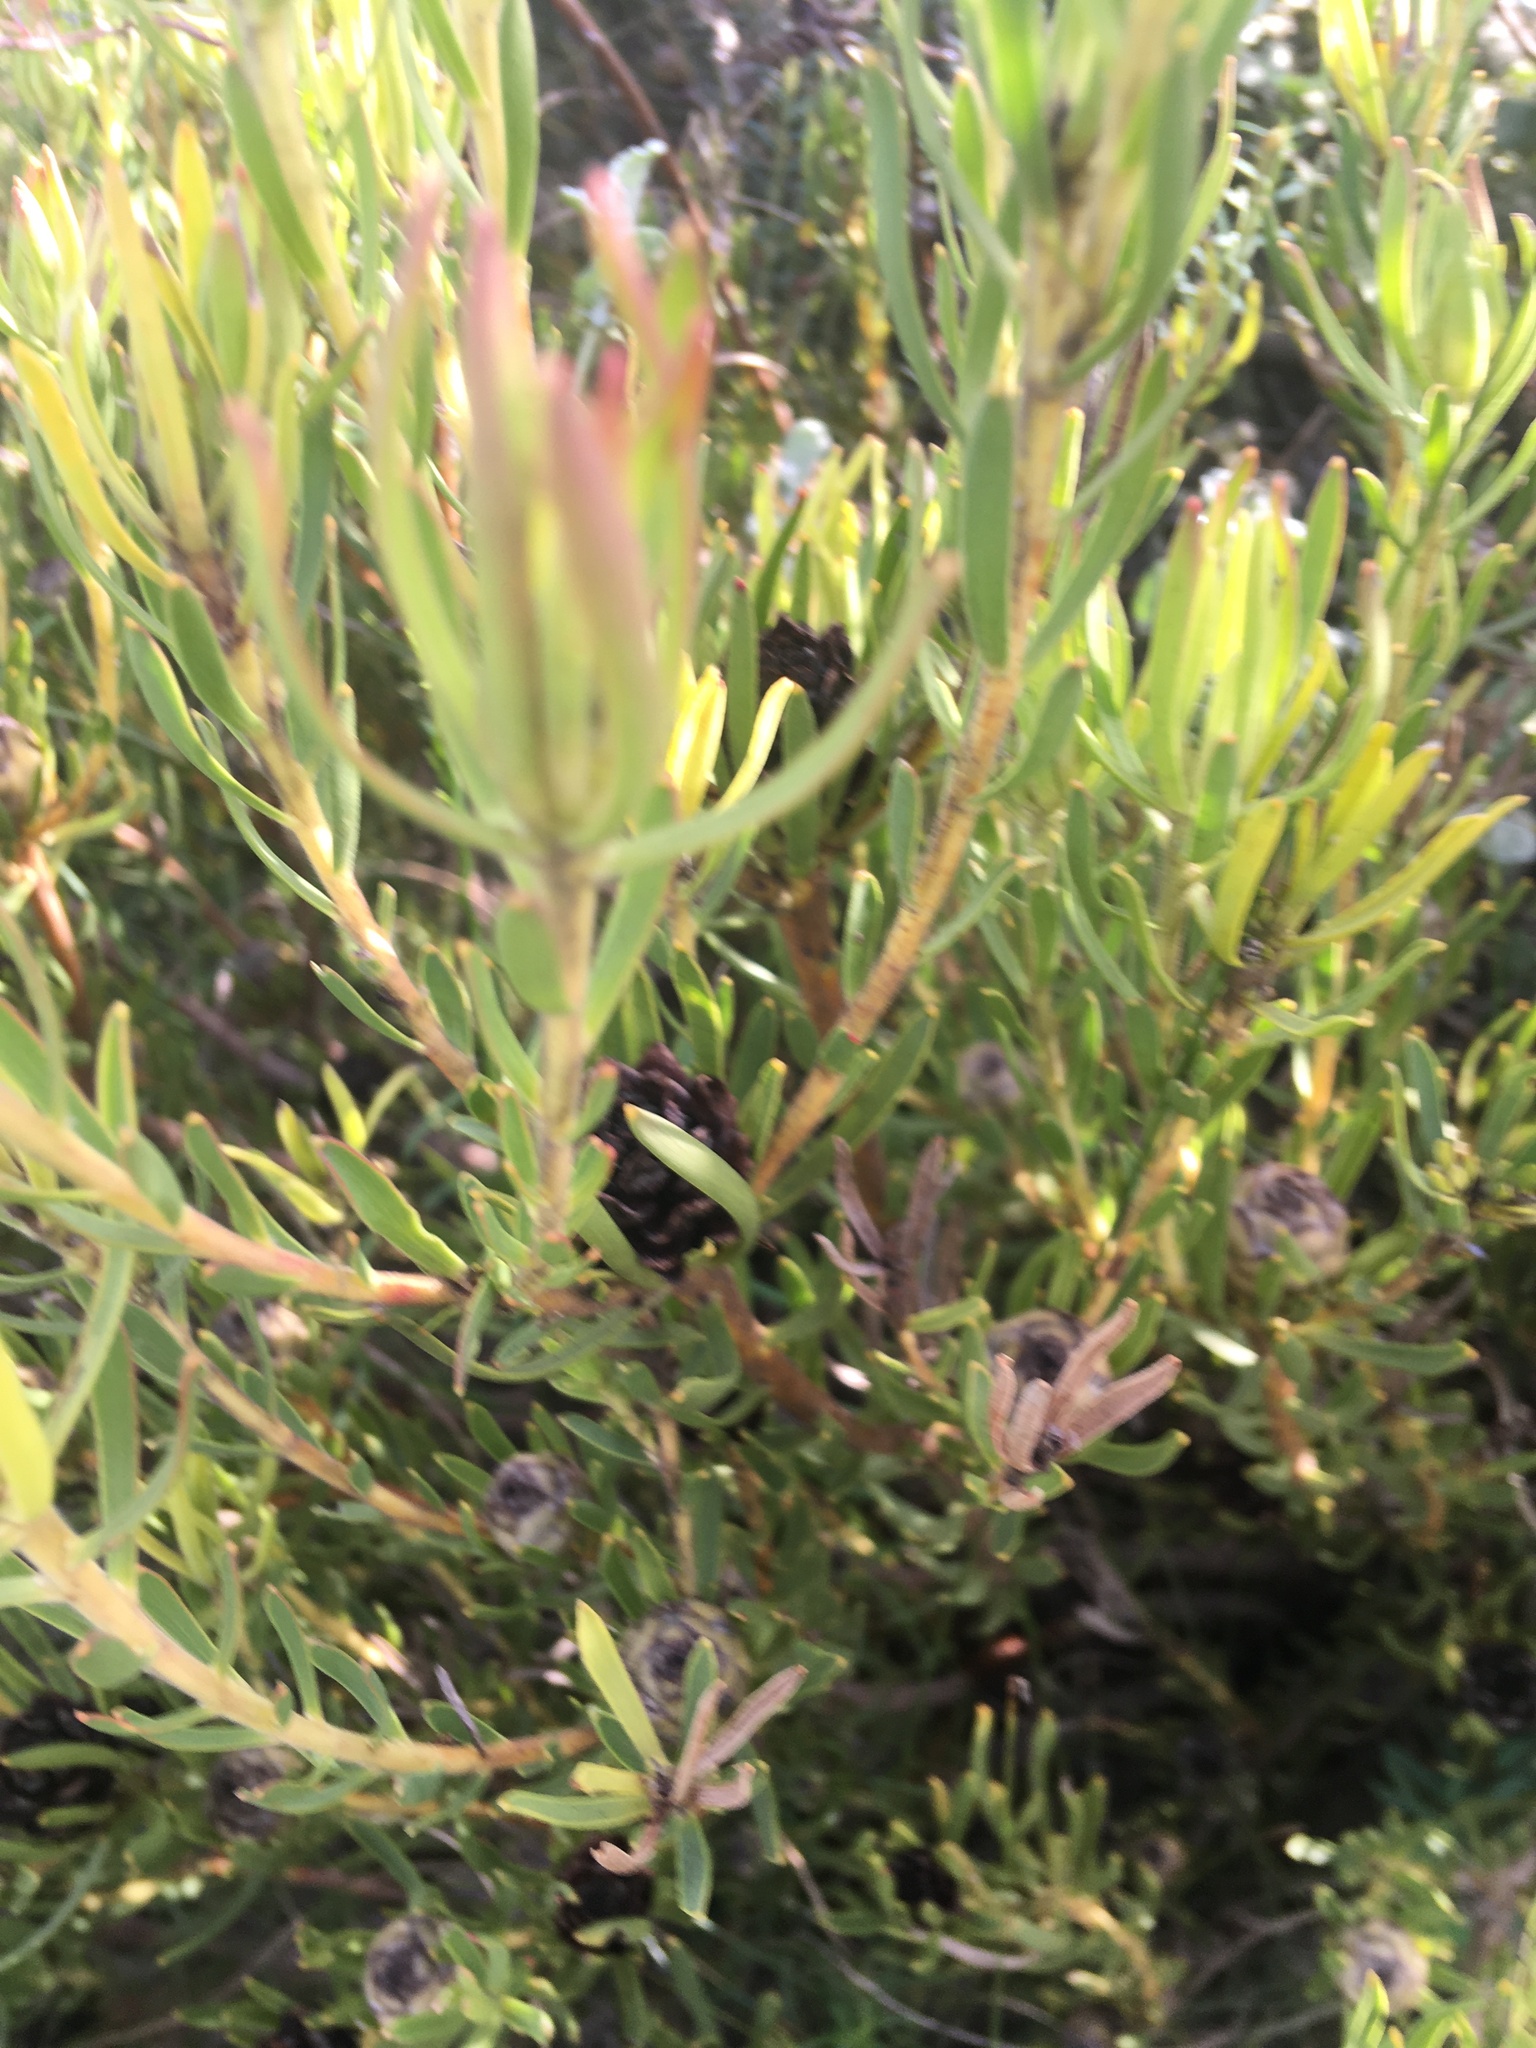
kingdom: Plantae
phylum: Tracheophyta
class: Magnoliopsida
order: Proteales
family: Proteaceae
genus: Leucadendron
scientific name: Leucadendron lanigerum
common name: Shale conebush
